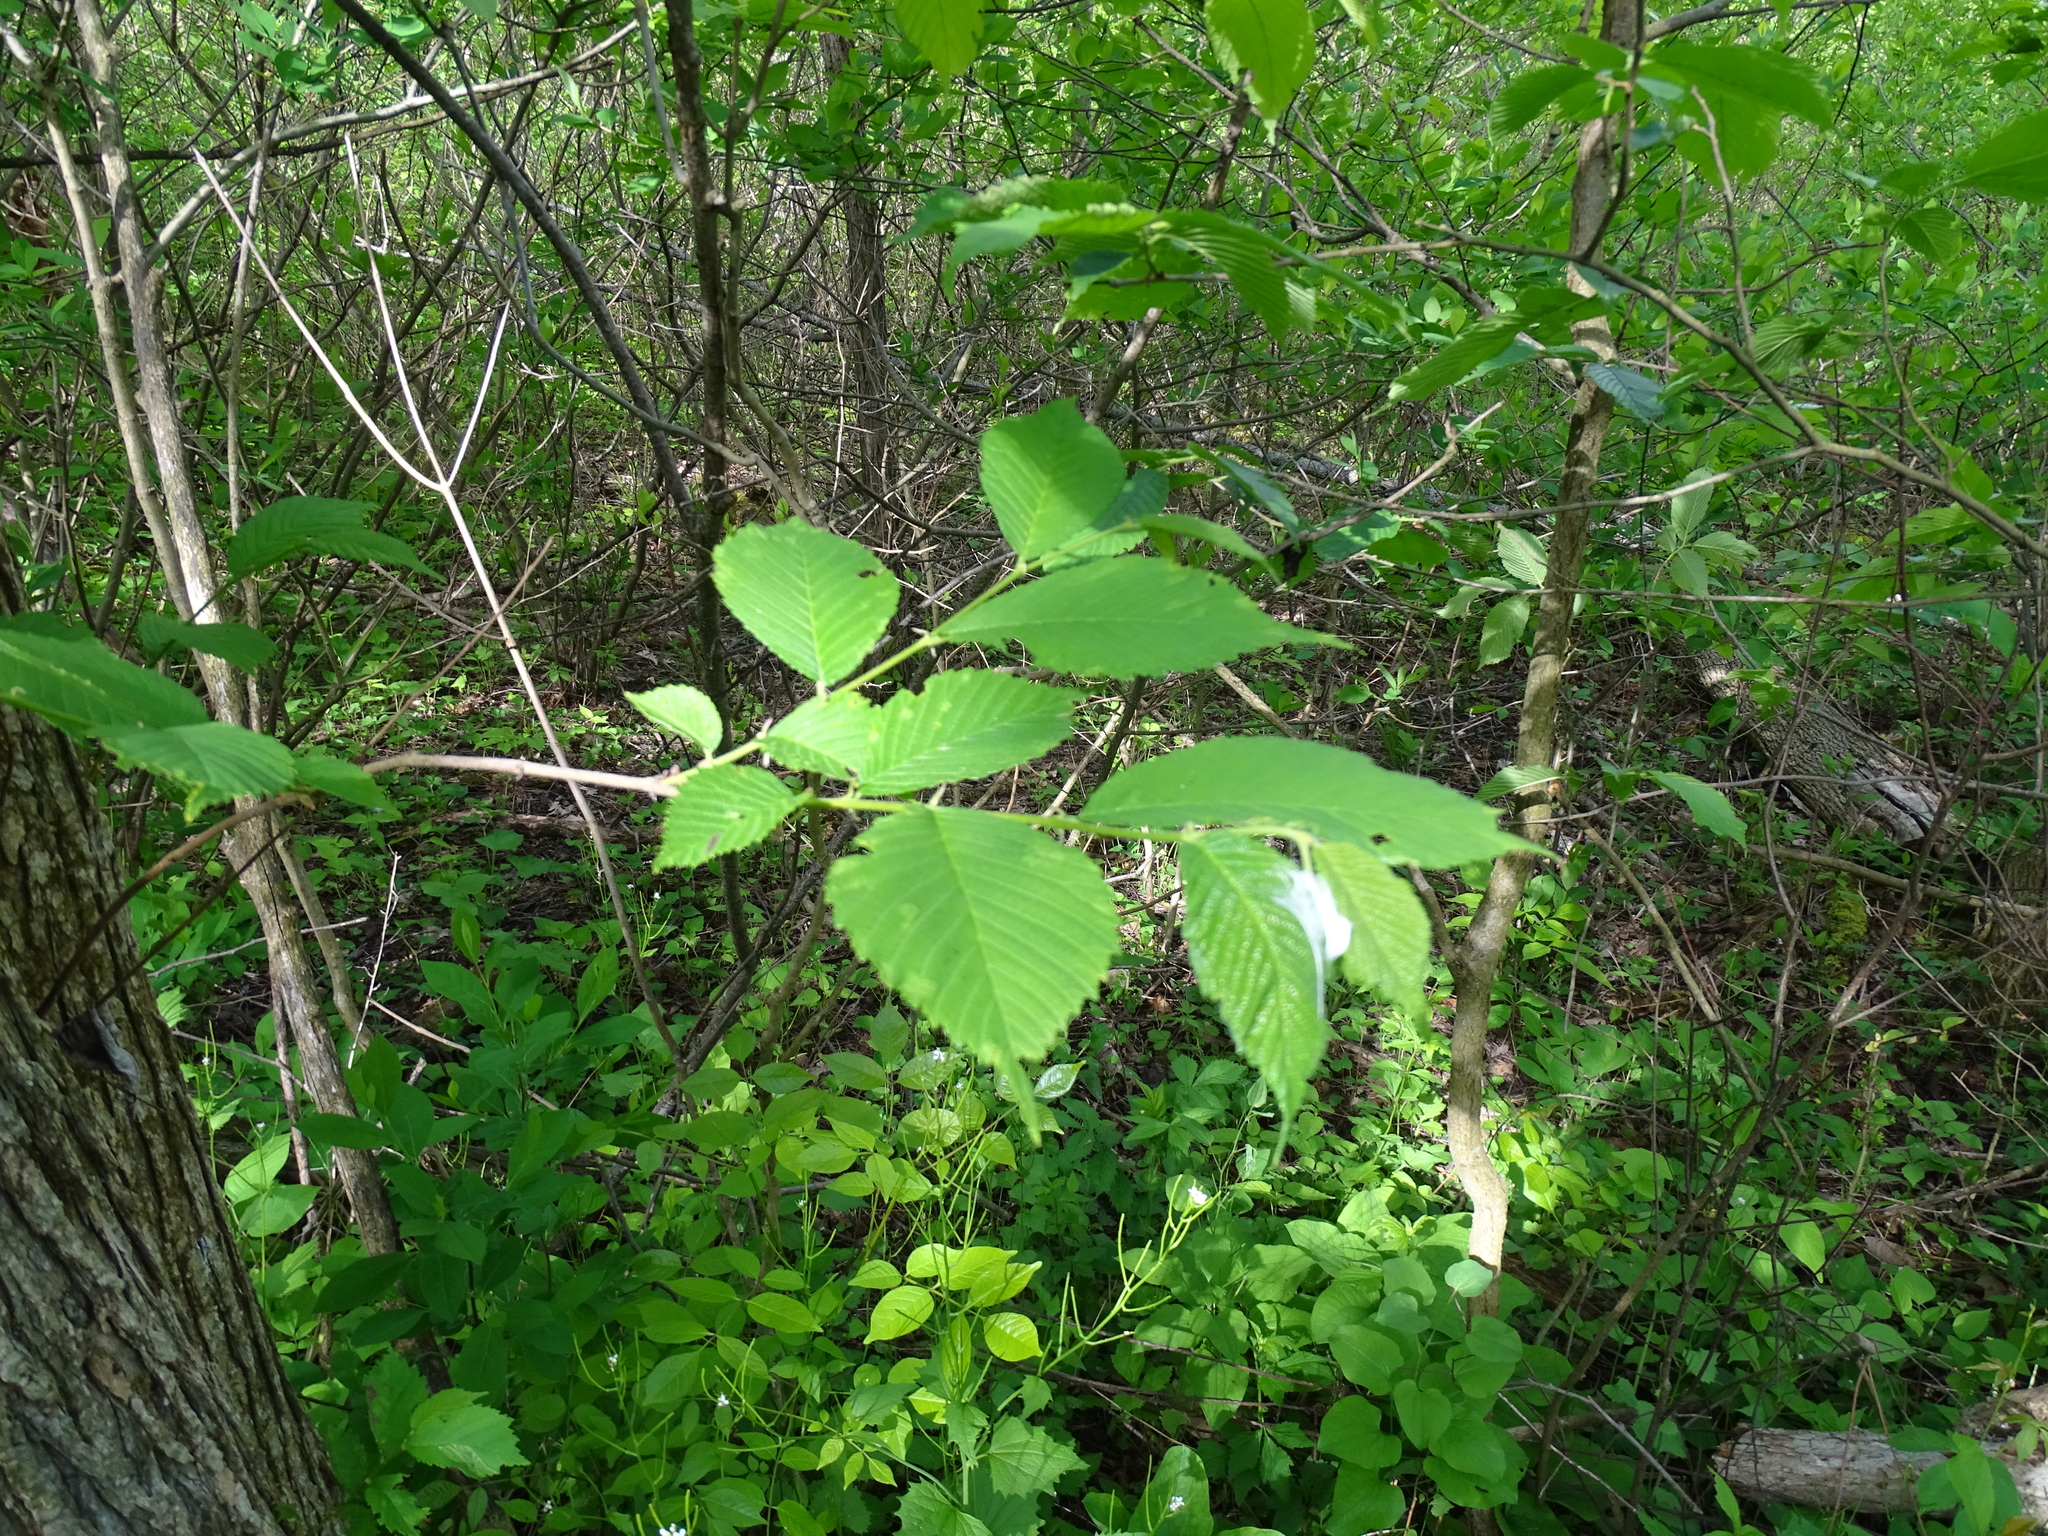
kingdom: Plantae
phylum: Tracheophyta
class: Magnoliopsida
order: Rosales
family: Ulmaceae
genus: Ulmus
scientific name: Ulmus americana
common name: American elm
